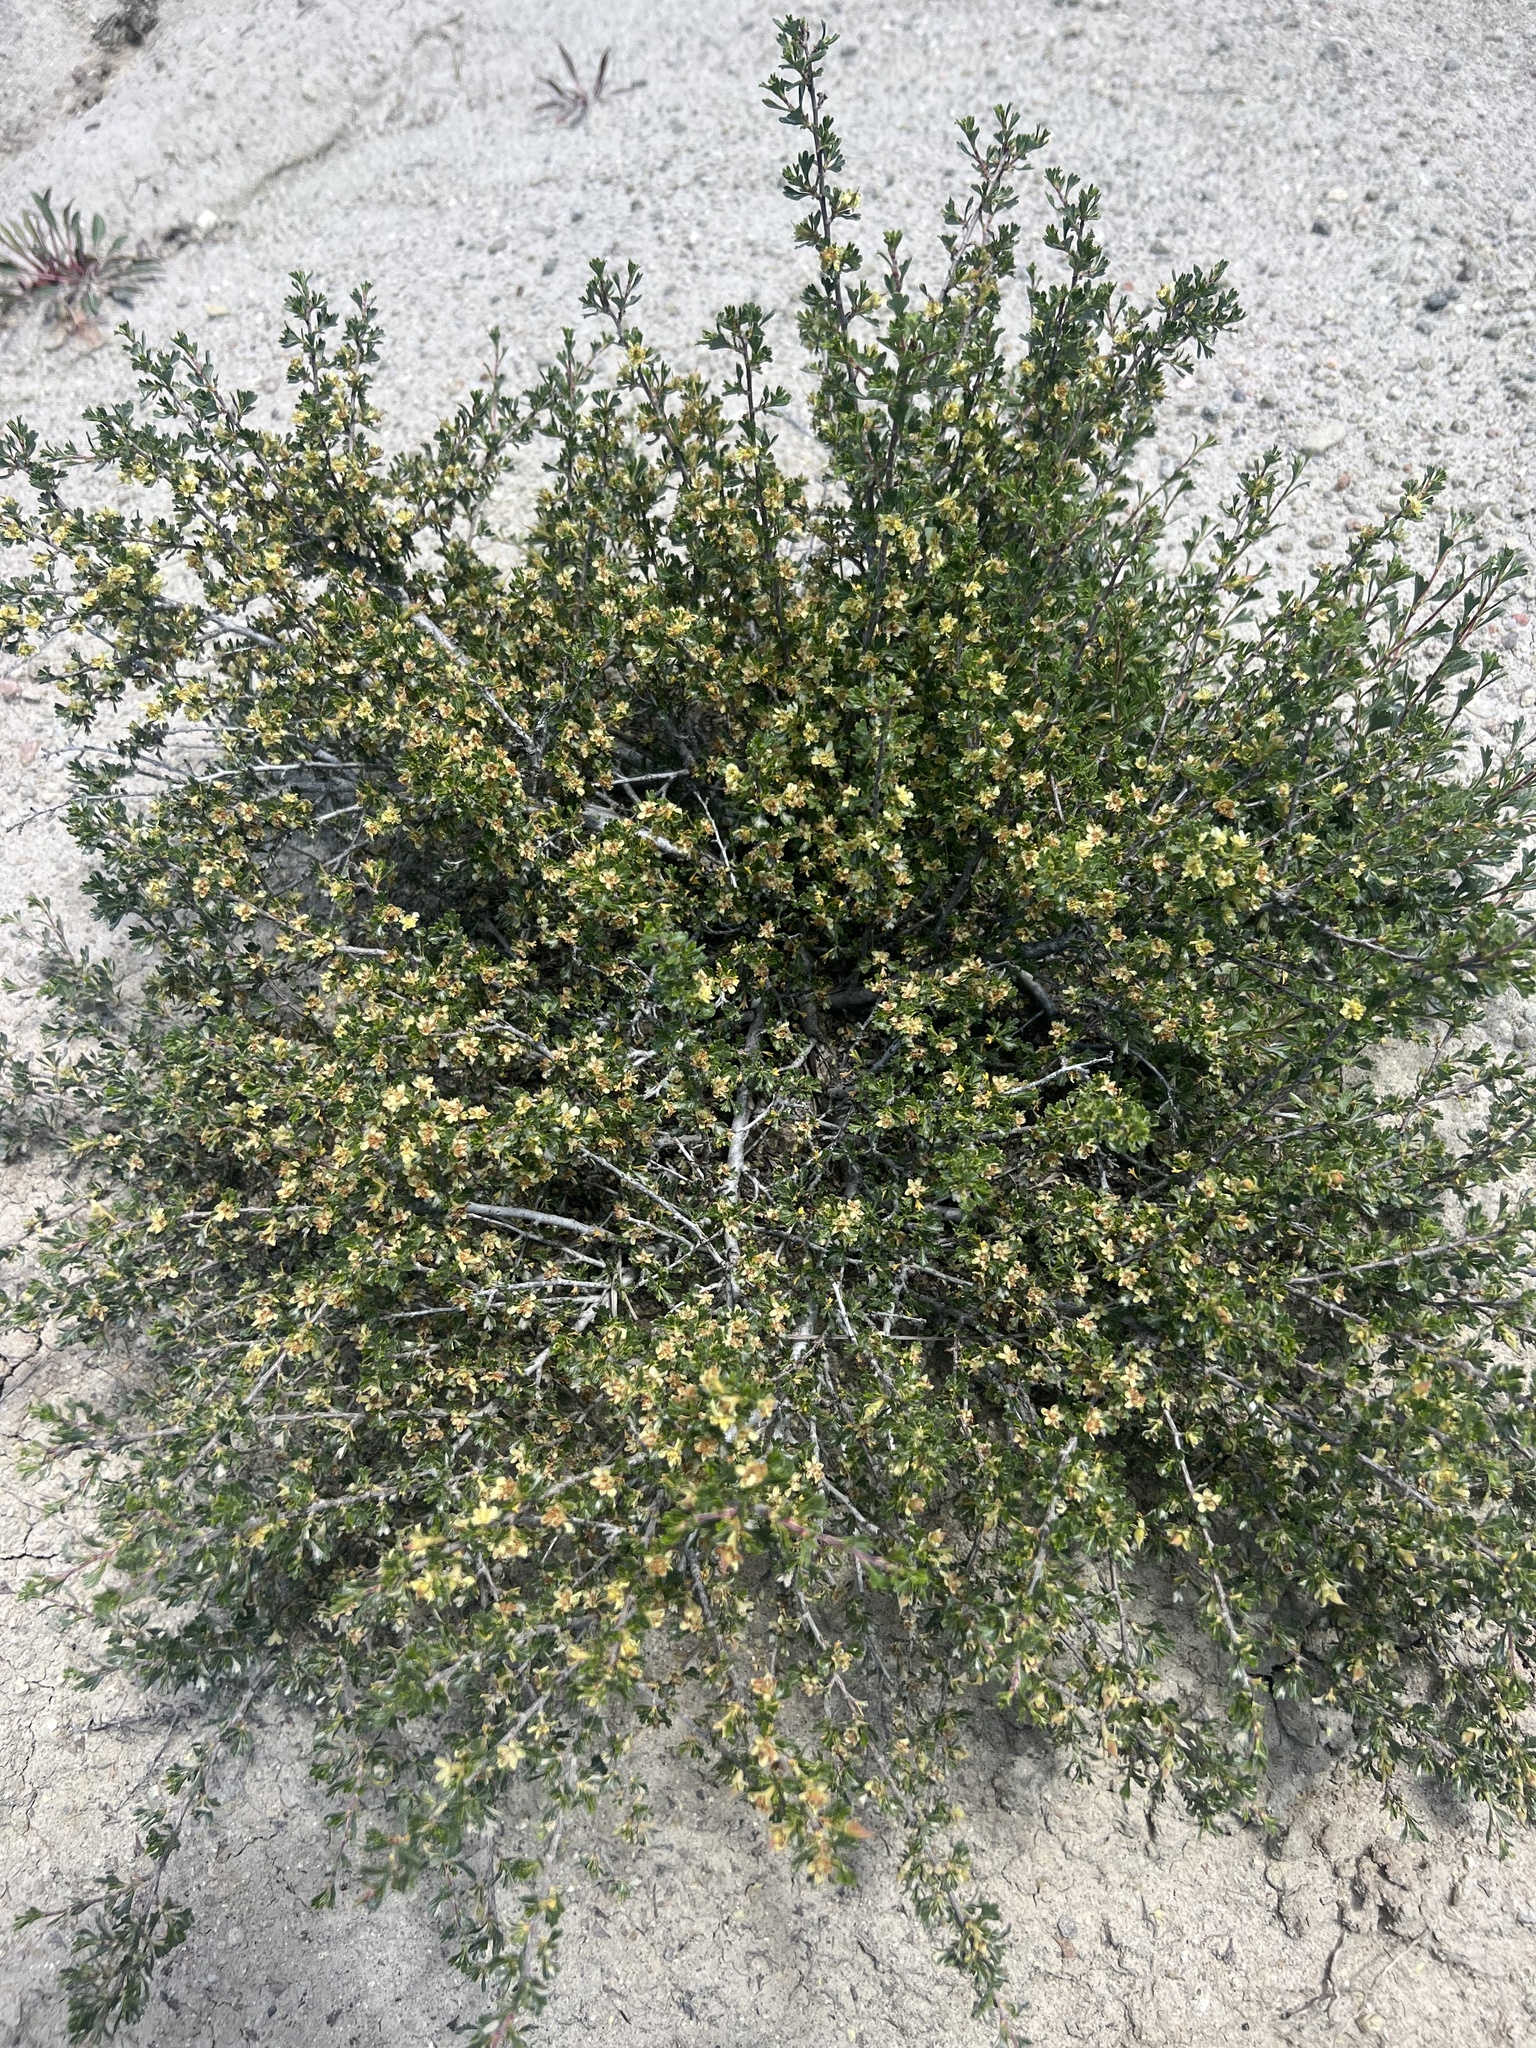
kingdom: Plantae
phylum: Tracheophyta
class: Magnoliopsida
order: Rosales
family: Rosaceae
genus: Purshia
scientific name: Purshia tridentata
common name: Antelope bitterbrush
